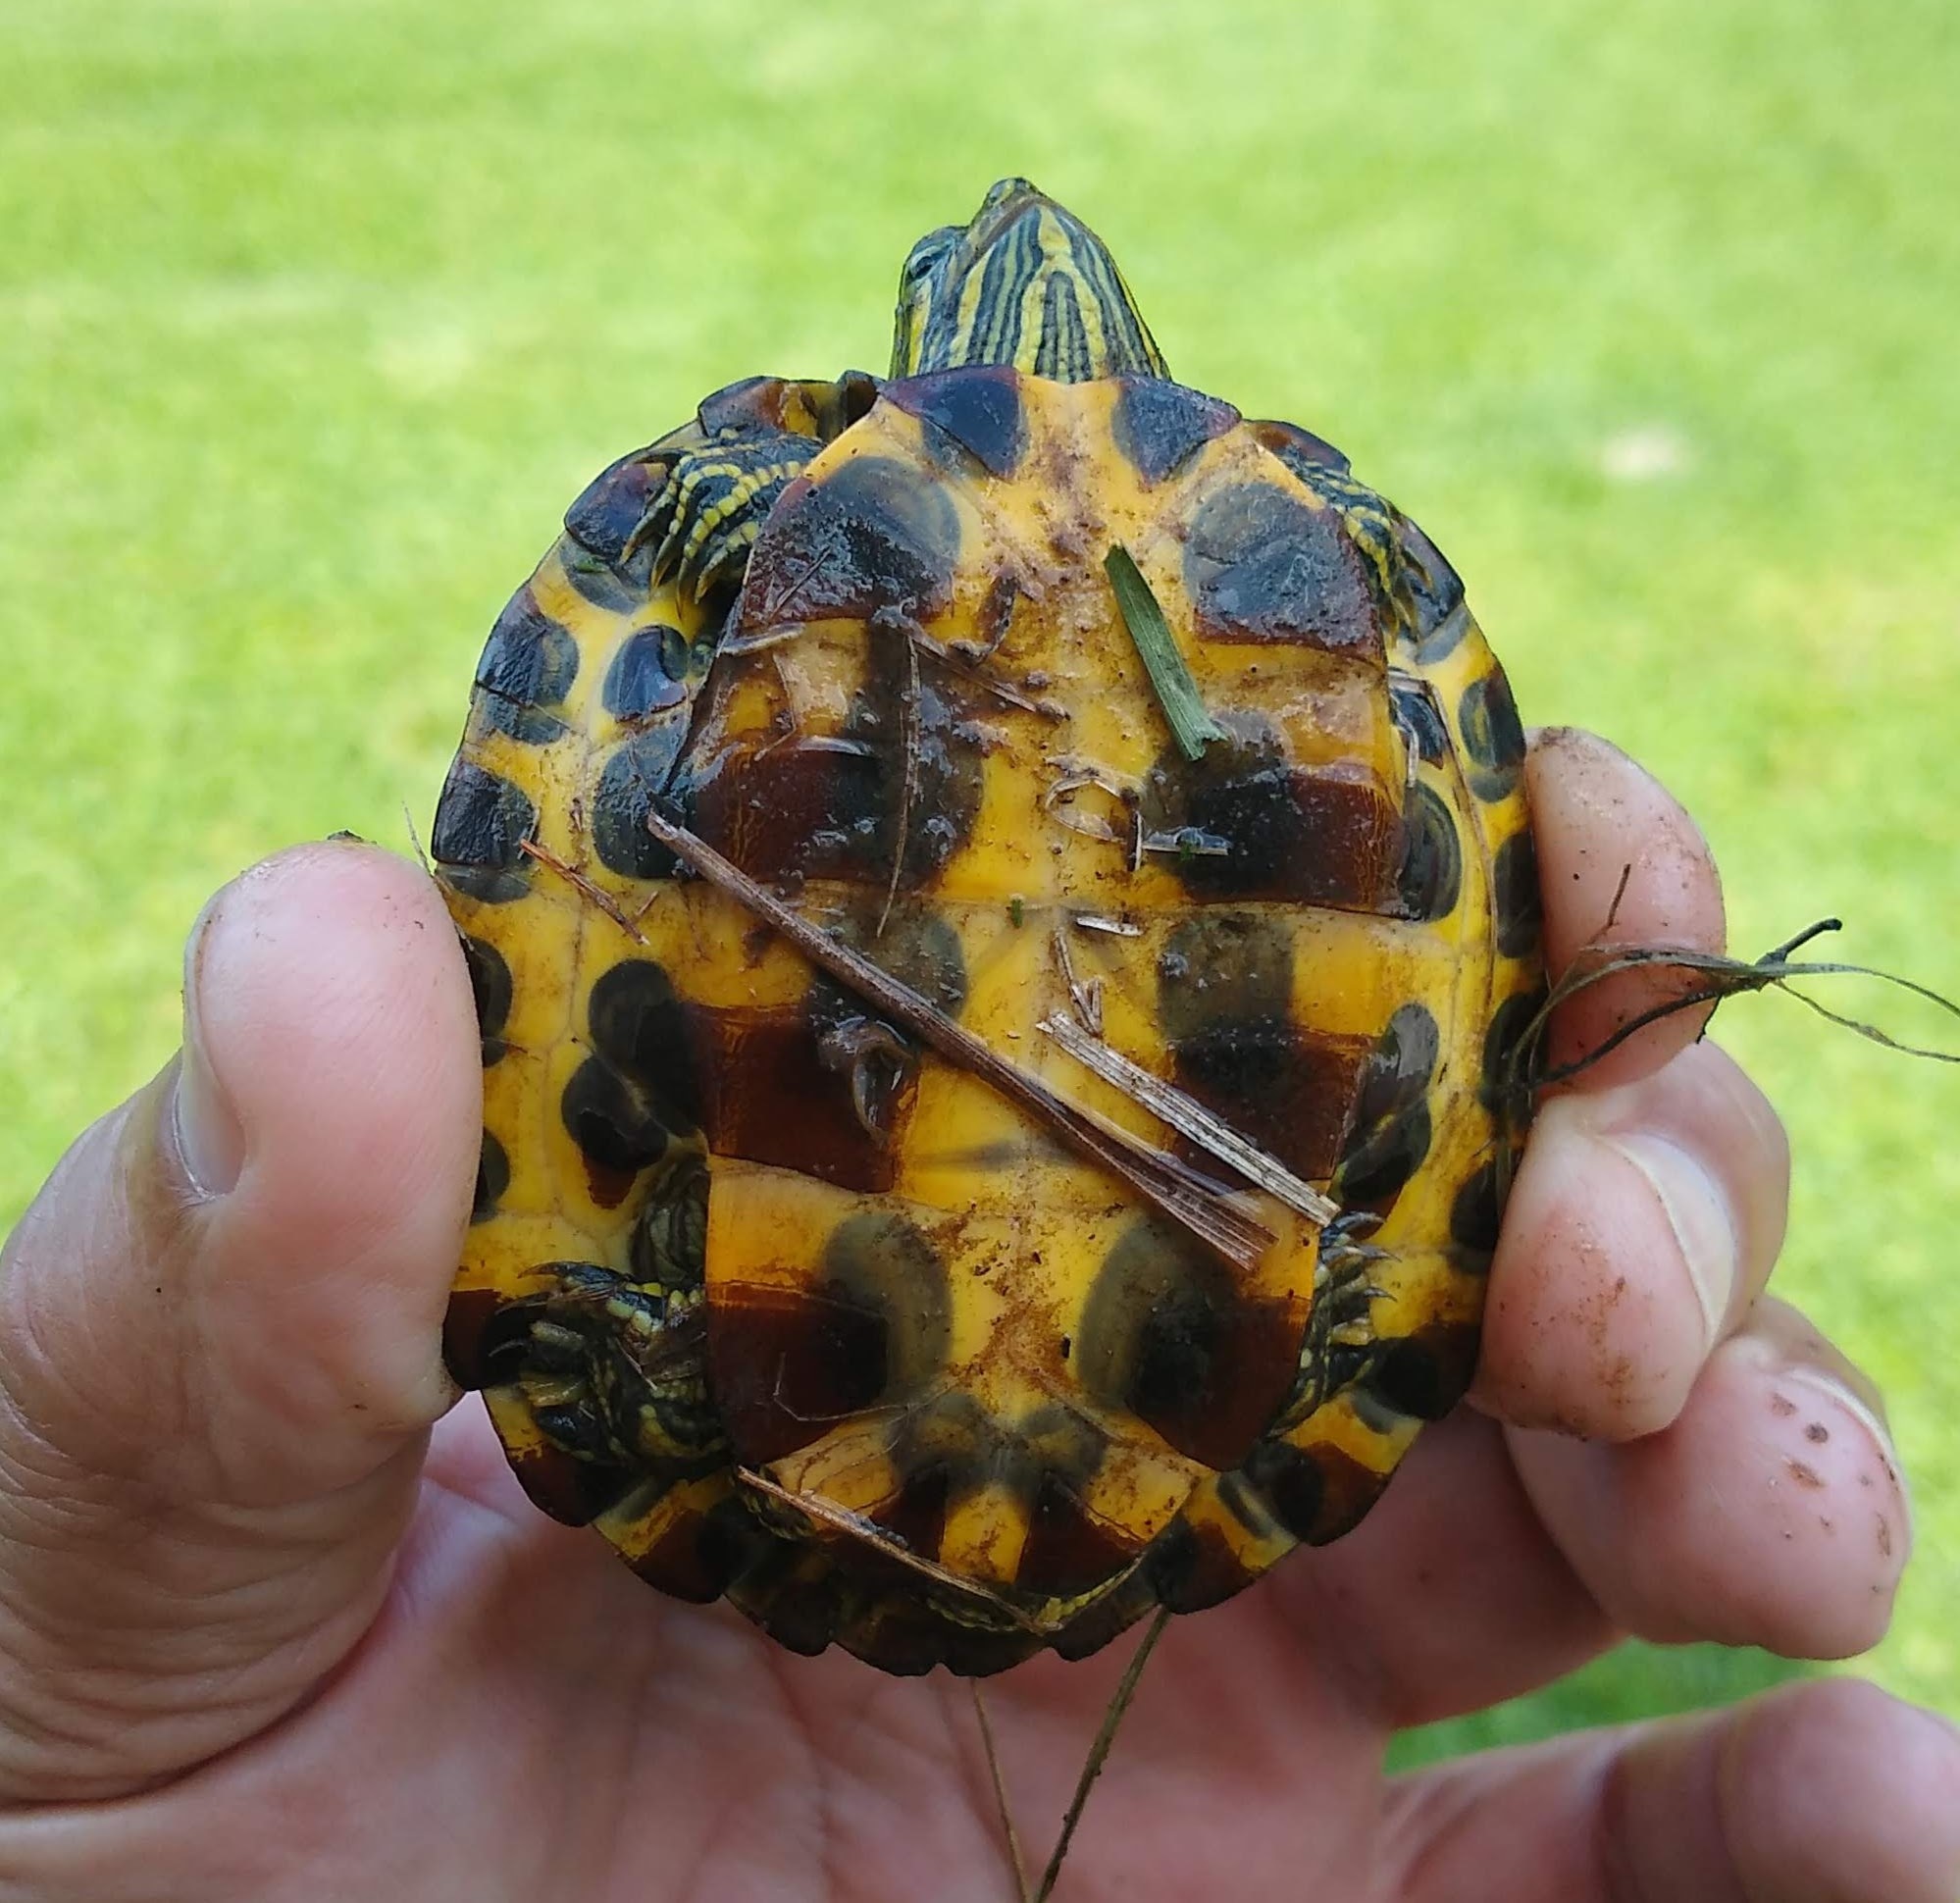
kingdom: Animalia
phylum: Chordata
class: Testudines
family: Emydidae
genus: Trachemys
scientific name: Trachemys scripta
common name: Slider
